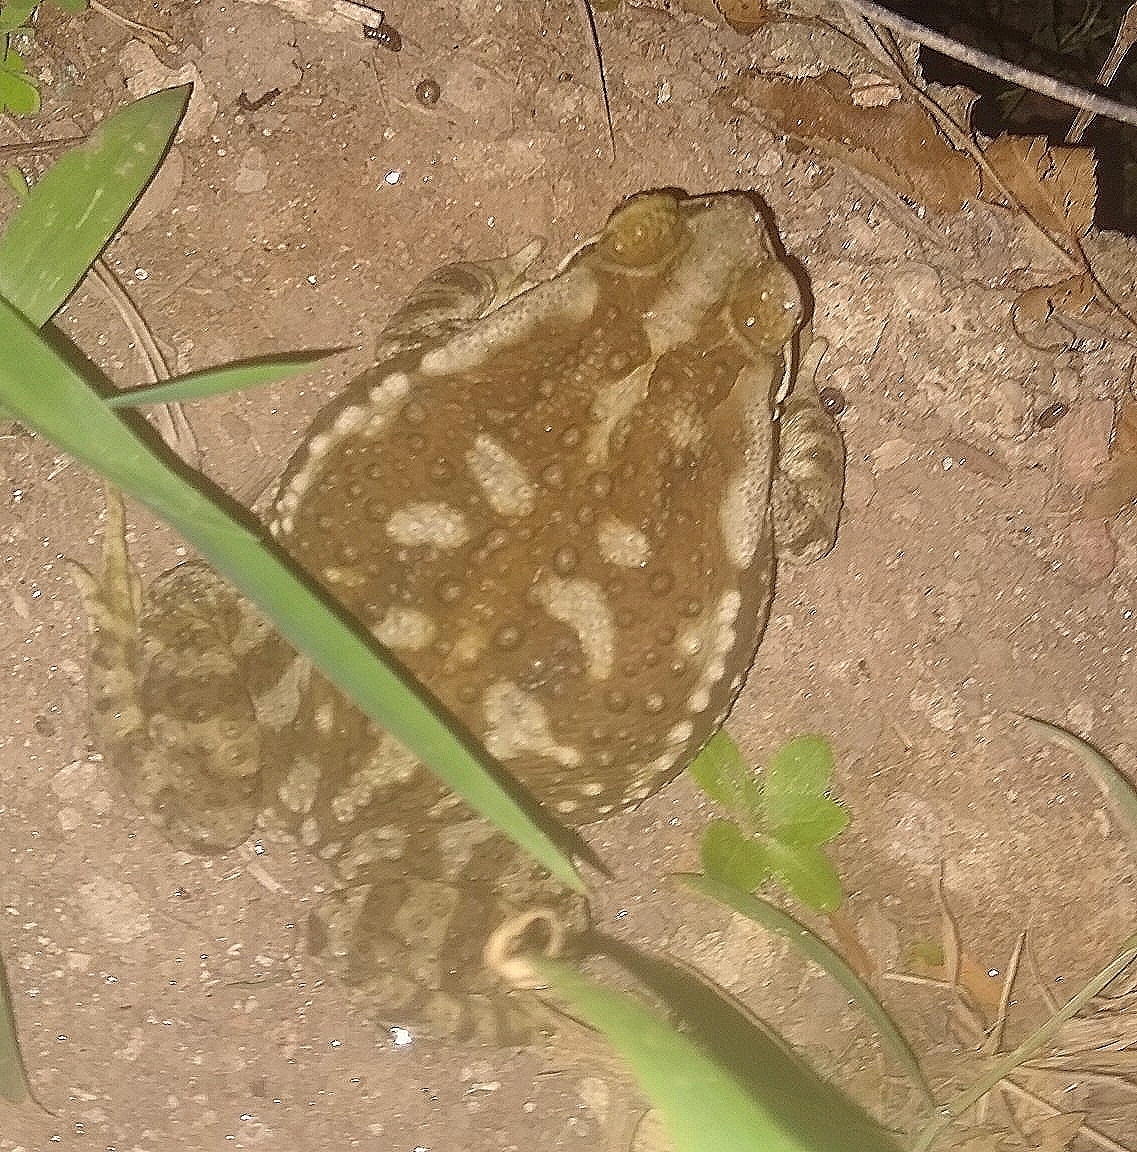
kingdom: Animalia
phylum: Chordata
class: Amphibia
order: Anura
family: Bufonidae
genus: Rhinella
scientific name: Rhinella arenarum
